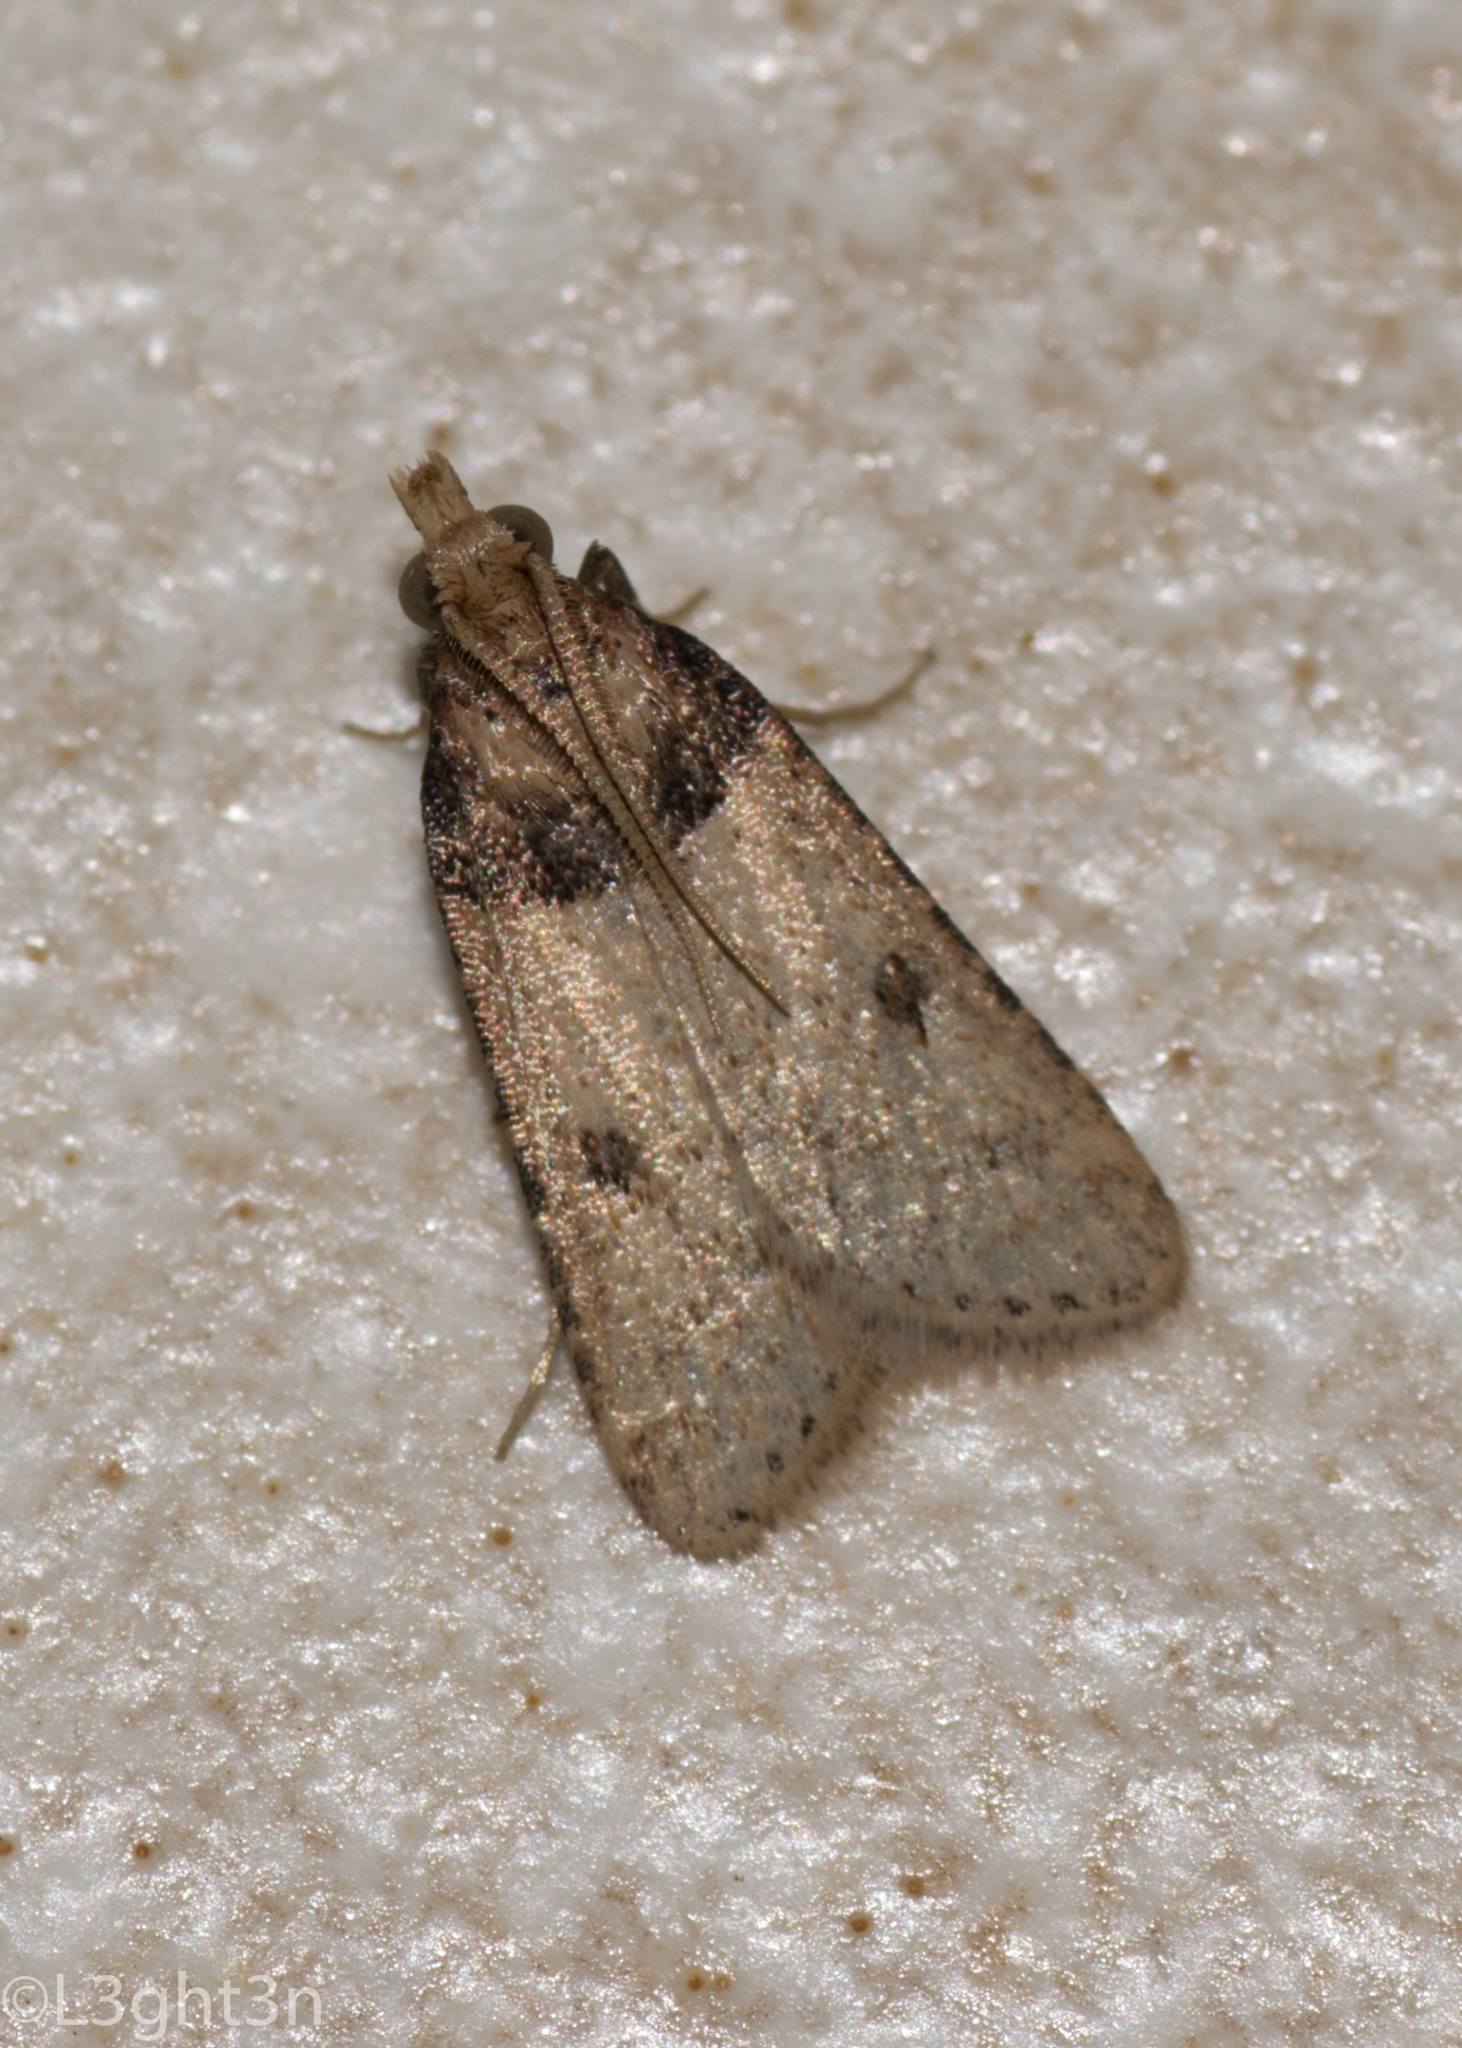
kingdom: Animalia
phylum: Arthropoda
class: Insecta
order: Lepidoptera
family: Pyralidae
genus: Philotis
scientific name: Philotis basalis
